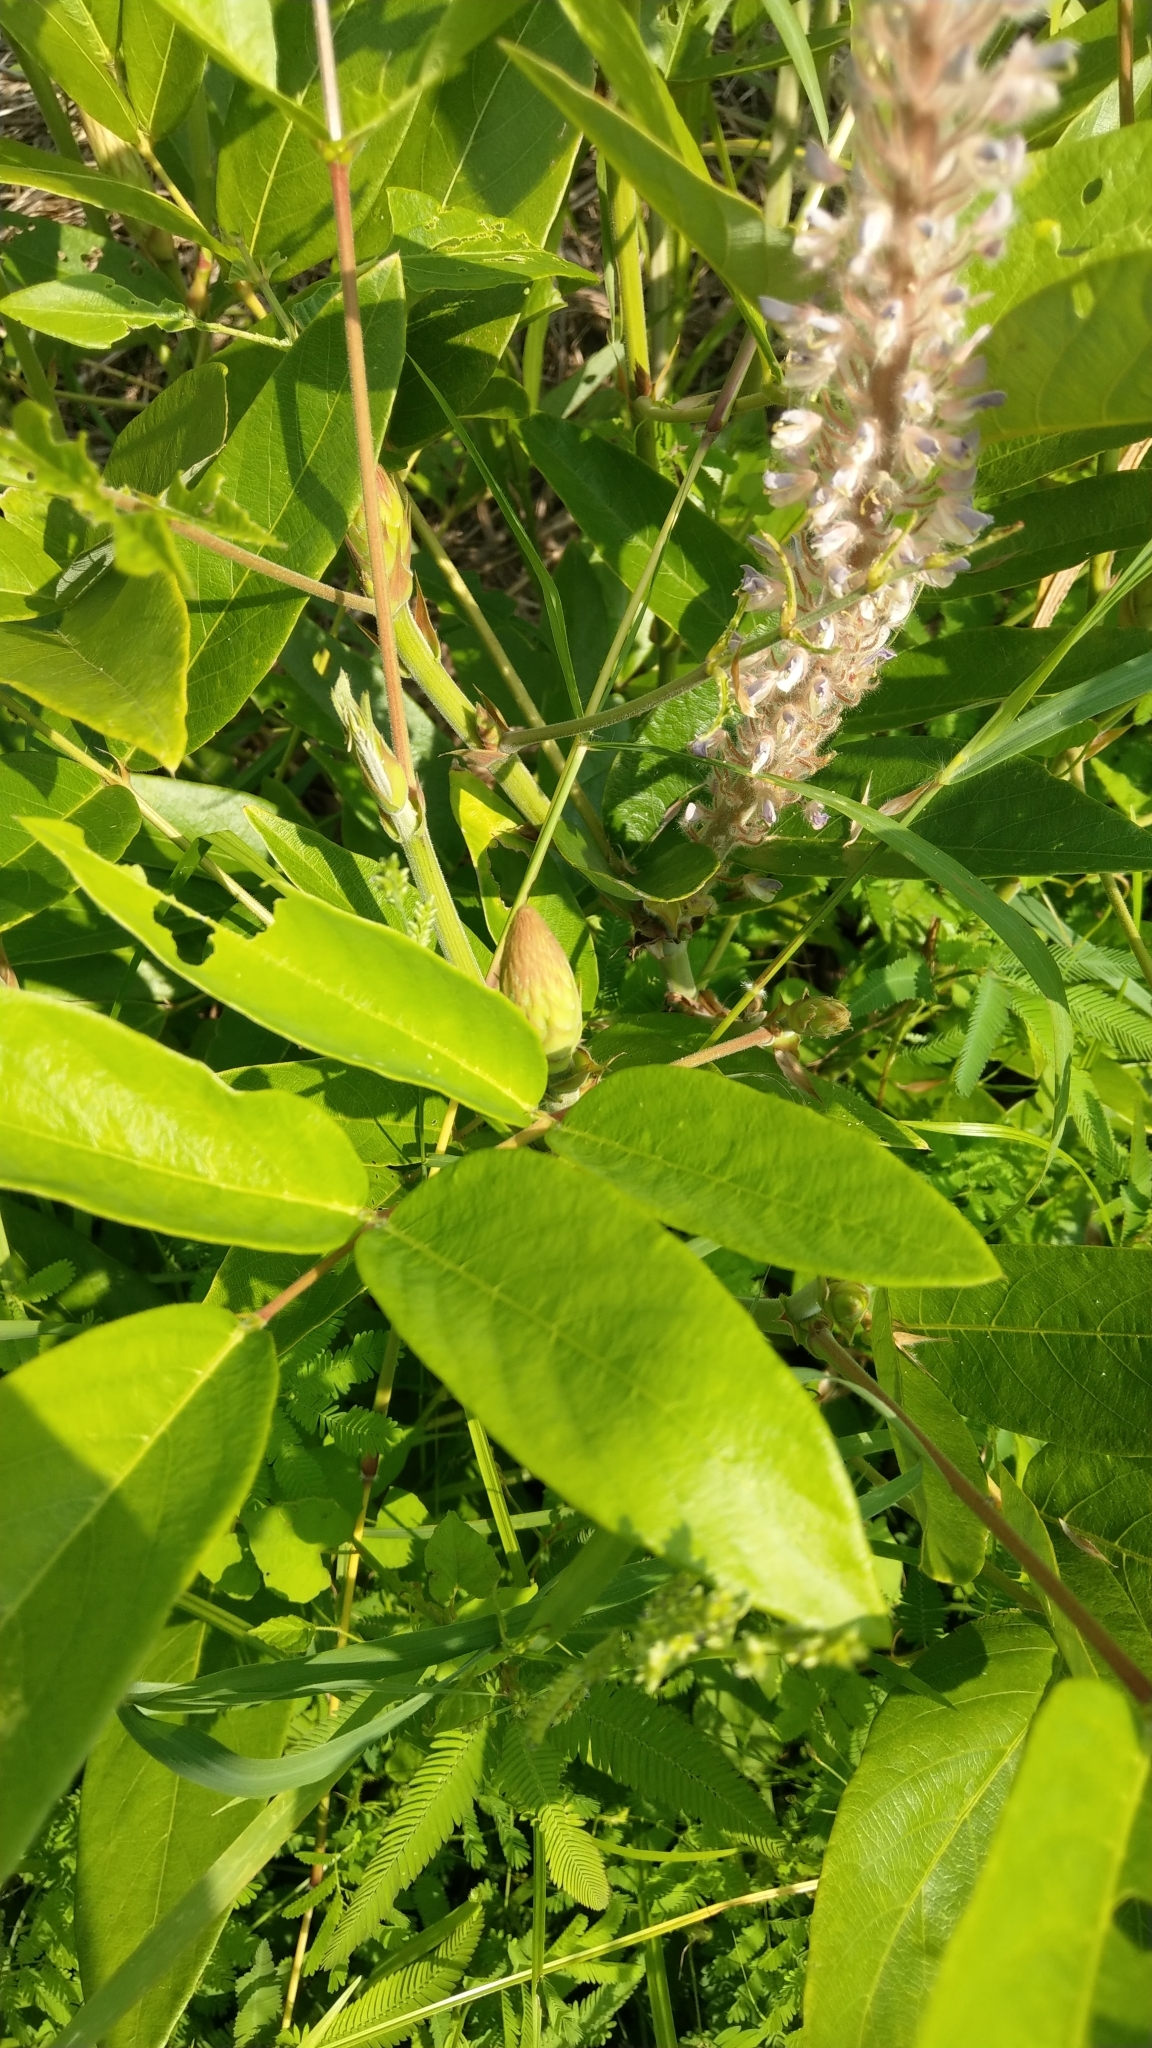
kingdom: Plantae
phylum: Tracheophyta
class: Magnoliopsida
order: Fabales
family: Fabaceae
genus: Uraria
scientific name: Uraria crinita
